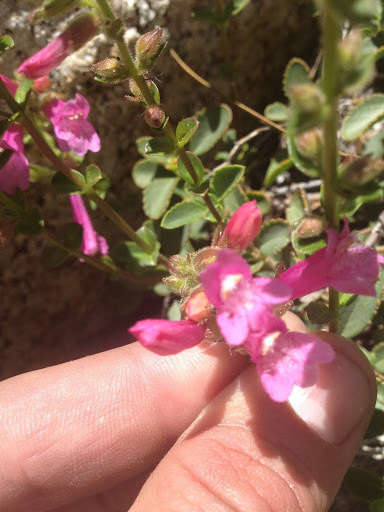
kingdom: Plantae
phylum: Tracheophyta
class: Magnoliopsida
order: Lamiales
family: Plantaginaceae
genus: Penstemon
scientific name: Penstemon newberryi
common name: Mountain-pride
